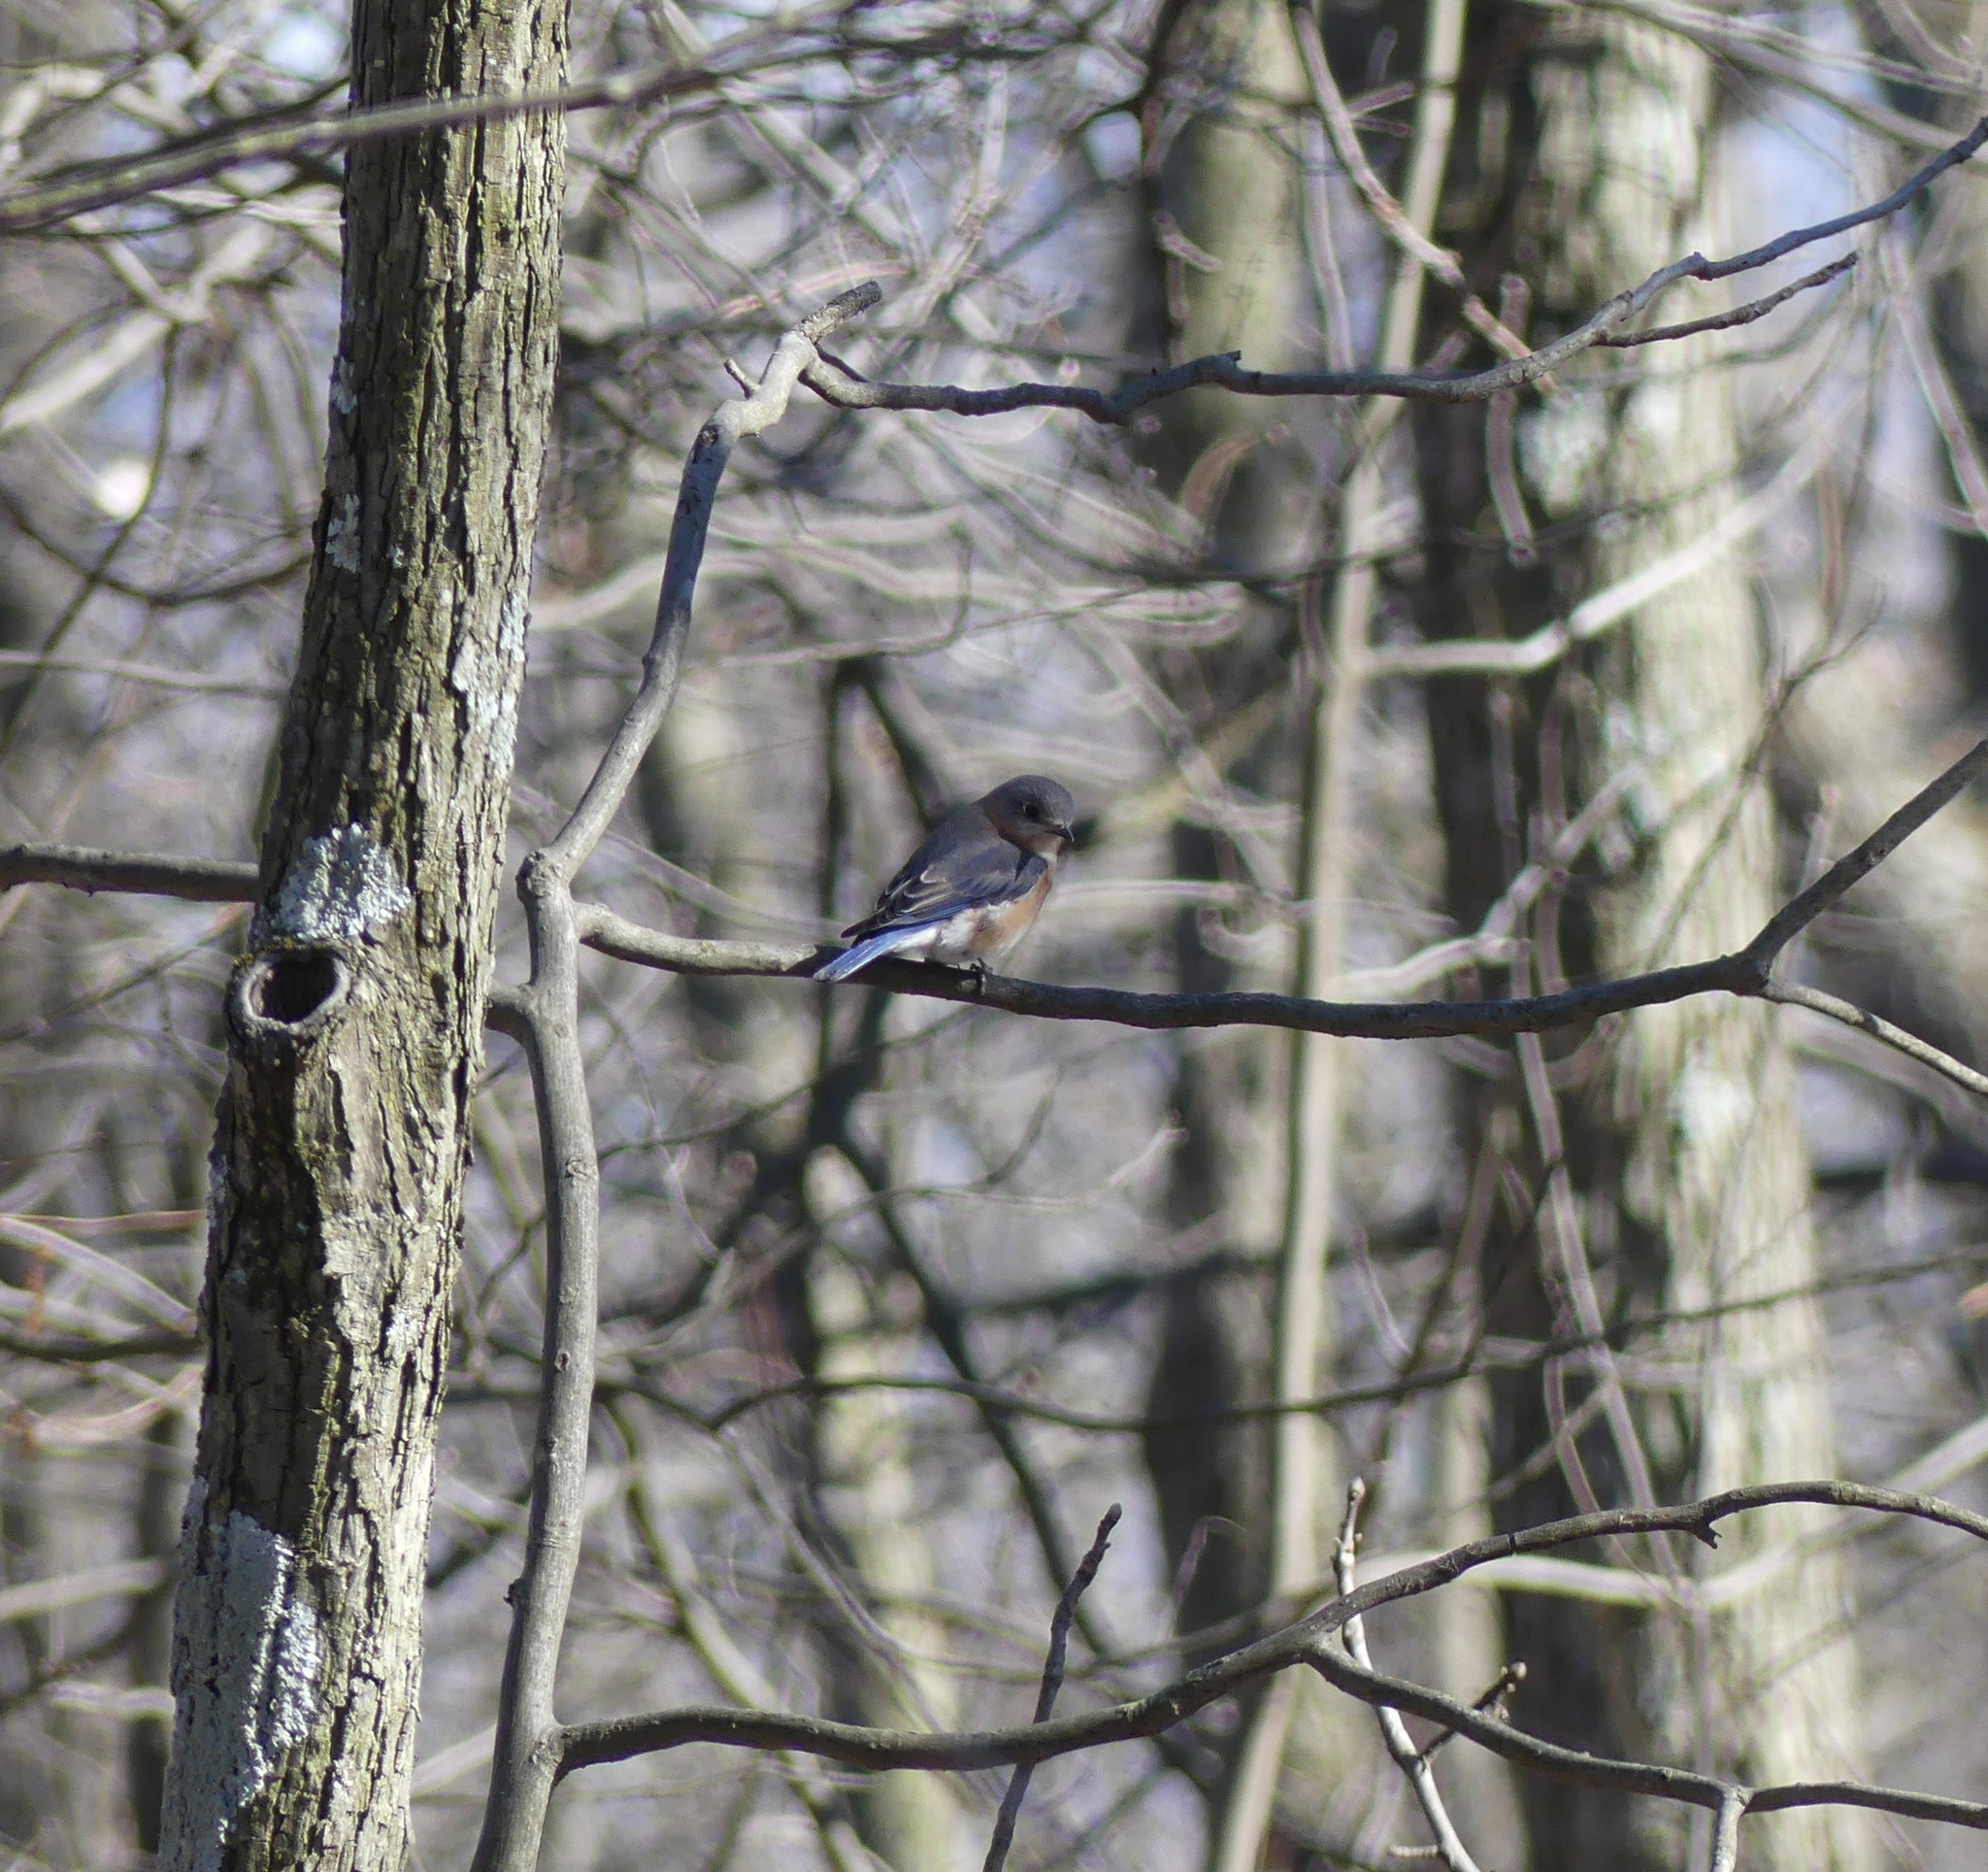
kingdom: Animalia
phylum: Chordata
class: Aves
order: Passeriformes
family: Turdidae
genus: Sialia
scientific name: Sialia sialis
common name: Eastern bluebird
